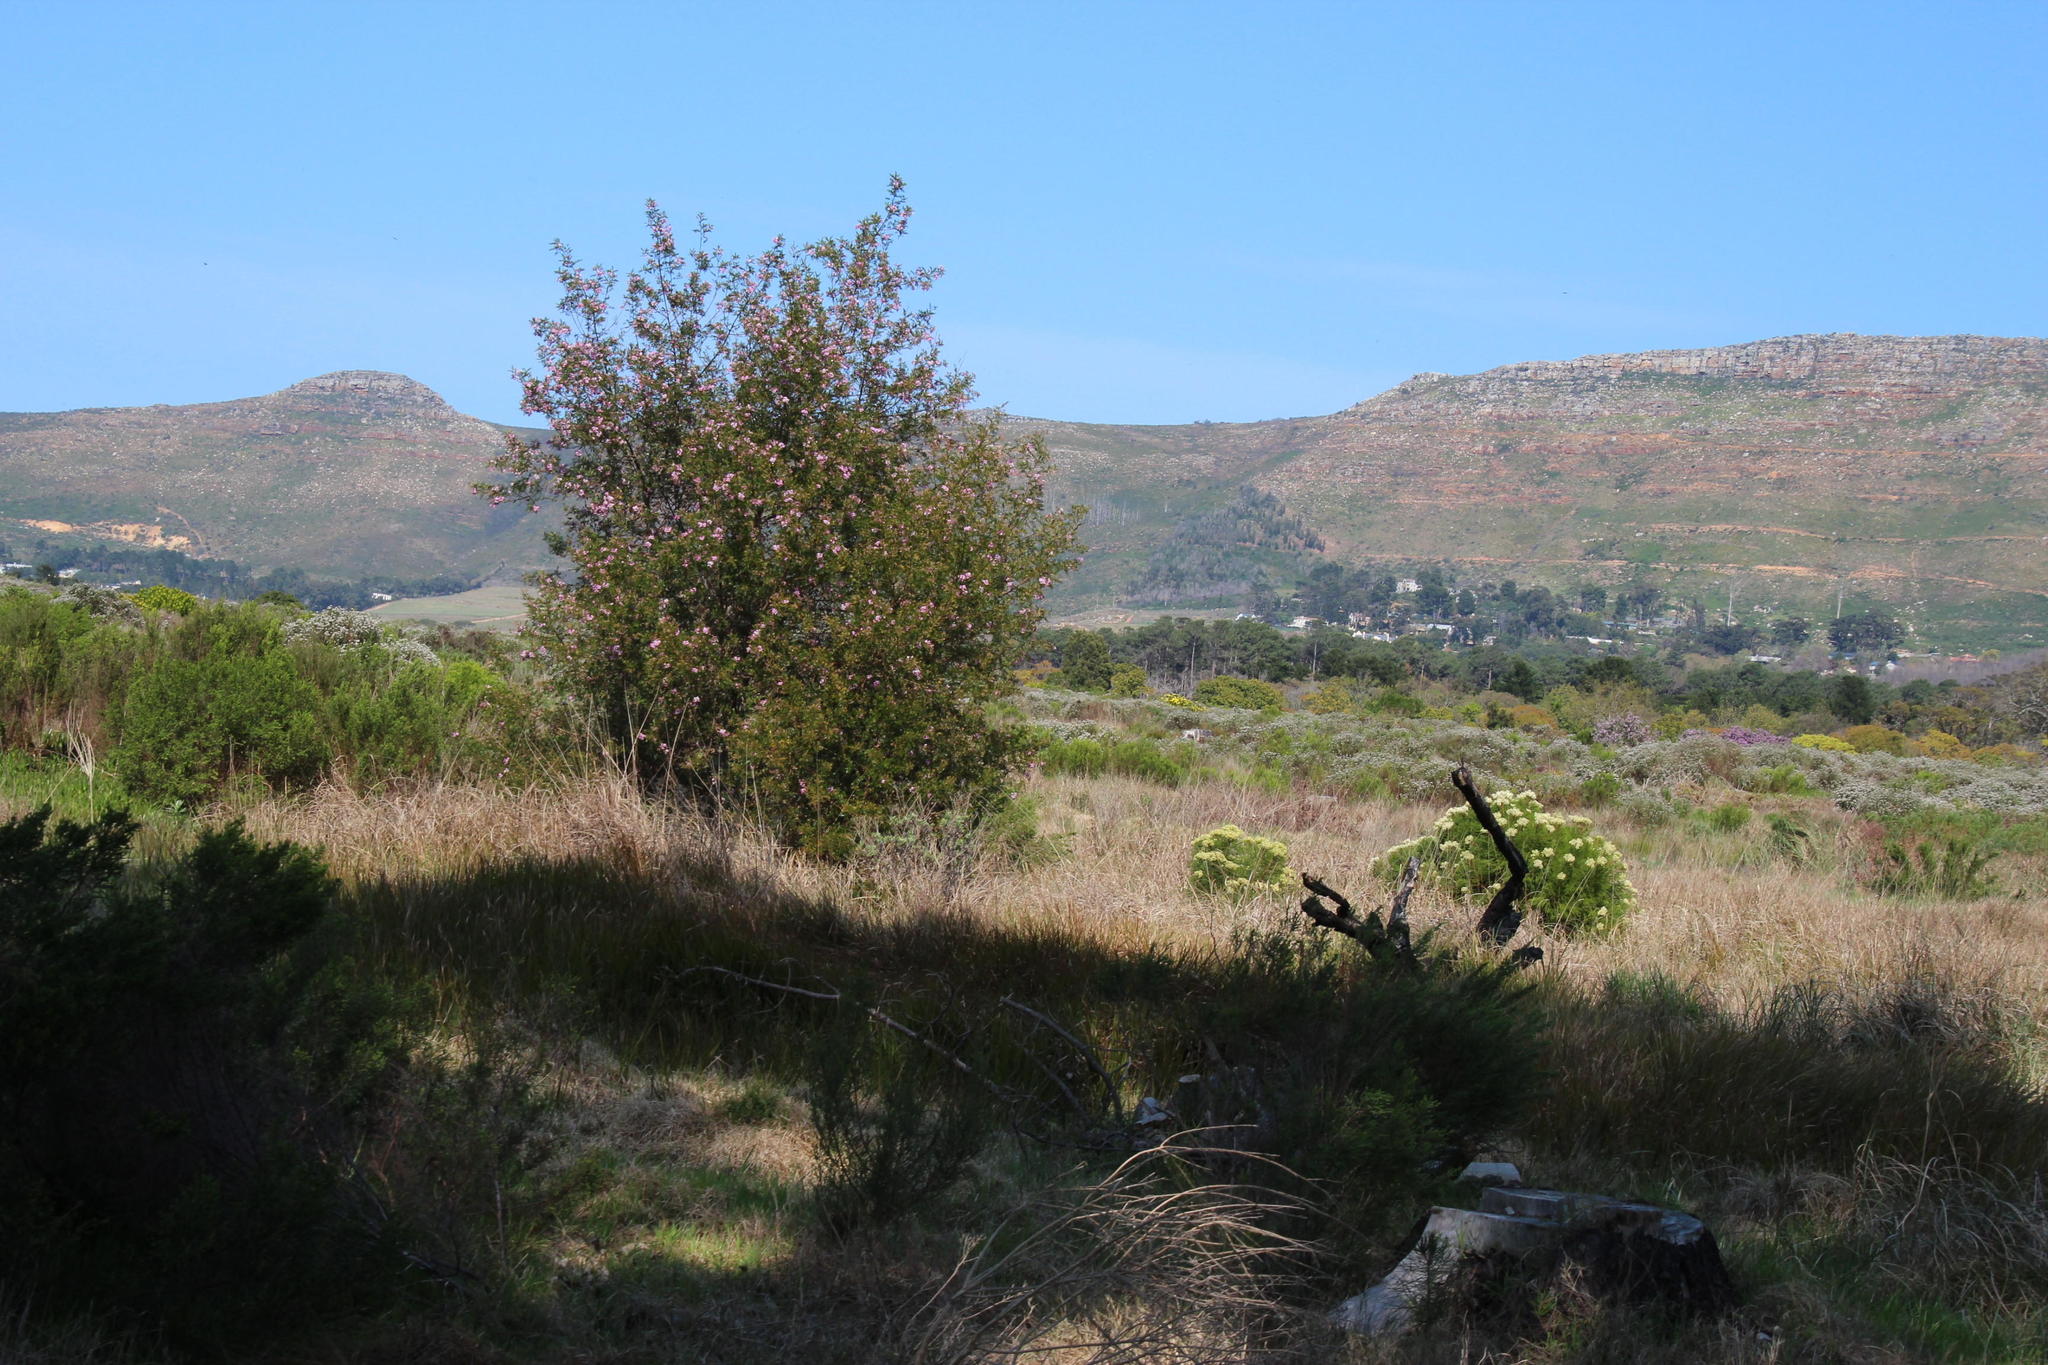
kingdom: Plantae
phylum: Tracheophyta
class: Magnoliopsida
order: Fabales
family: Fabaceae
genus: Virgilia
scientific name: Virgilia oroboides
